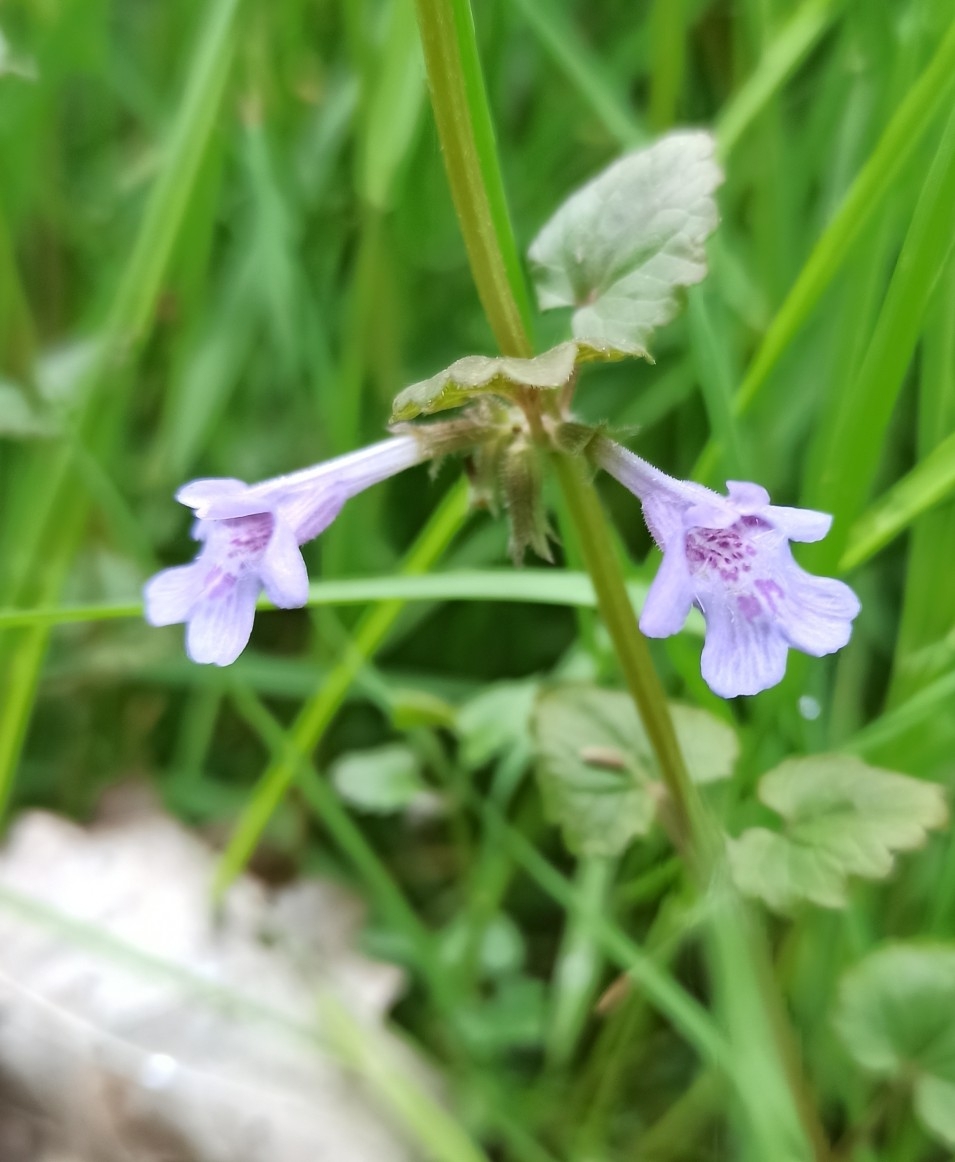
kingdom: Plantae
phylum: Tracheophyta
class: Magnoliopsida
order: Lamiales
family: Lamiaceae
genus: Glechoma
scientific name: Glechoma hederacea
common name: Ground ivy
